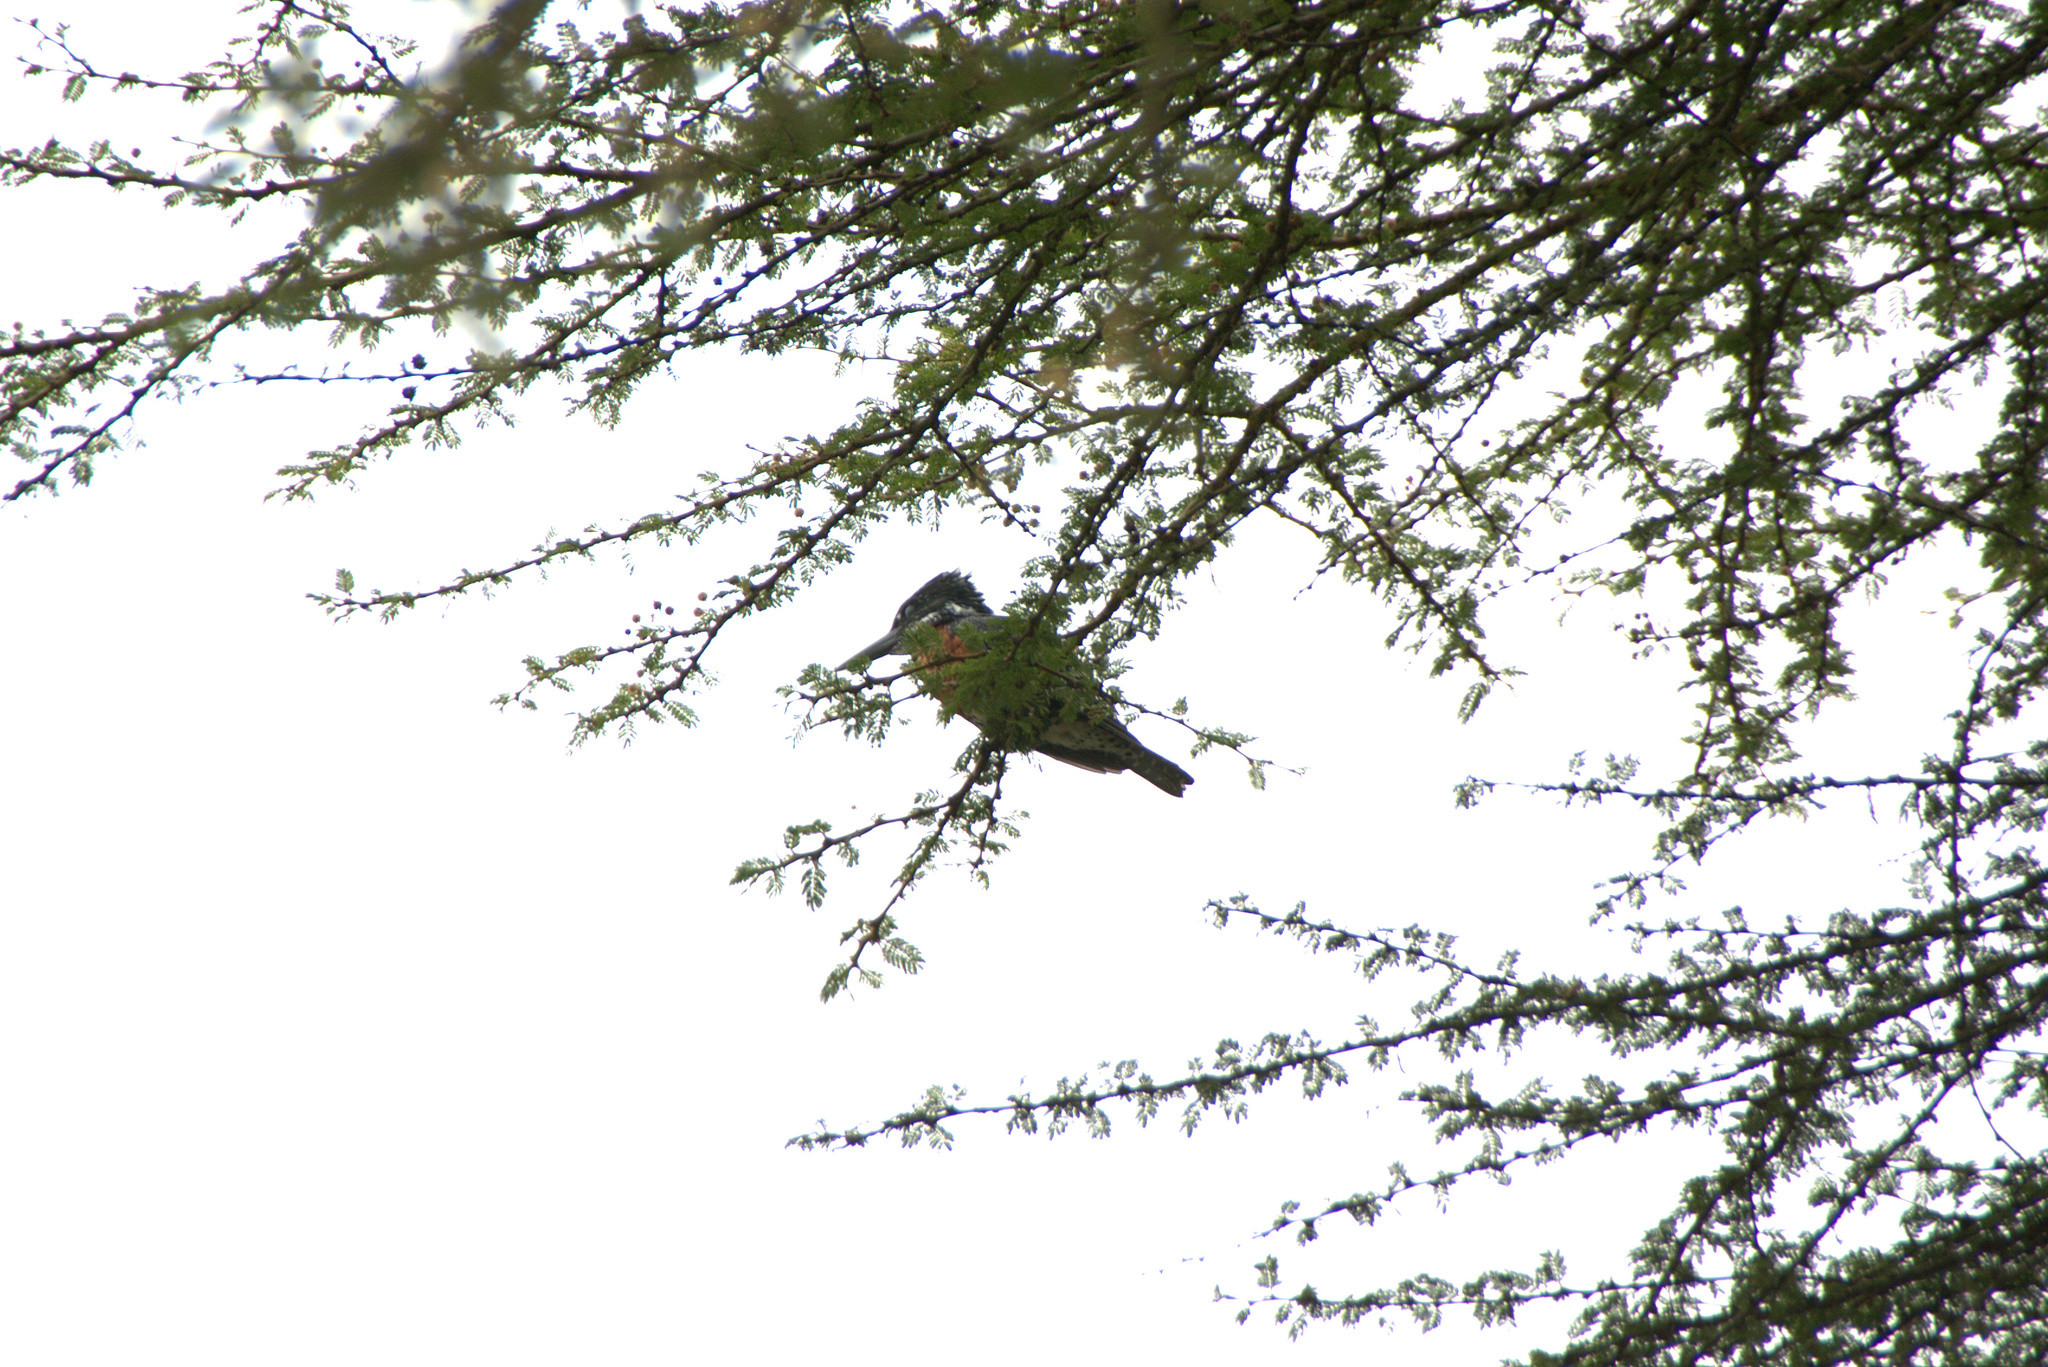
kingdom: Animalia
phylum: Chordata
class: Aves
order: Coraciiformes
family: Alcedinidae
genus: Megaceryle
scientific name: Megaceryle maxima
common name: Giant kingfisher
